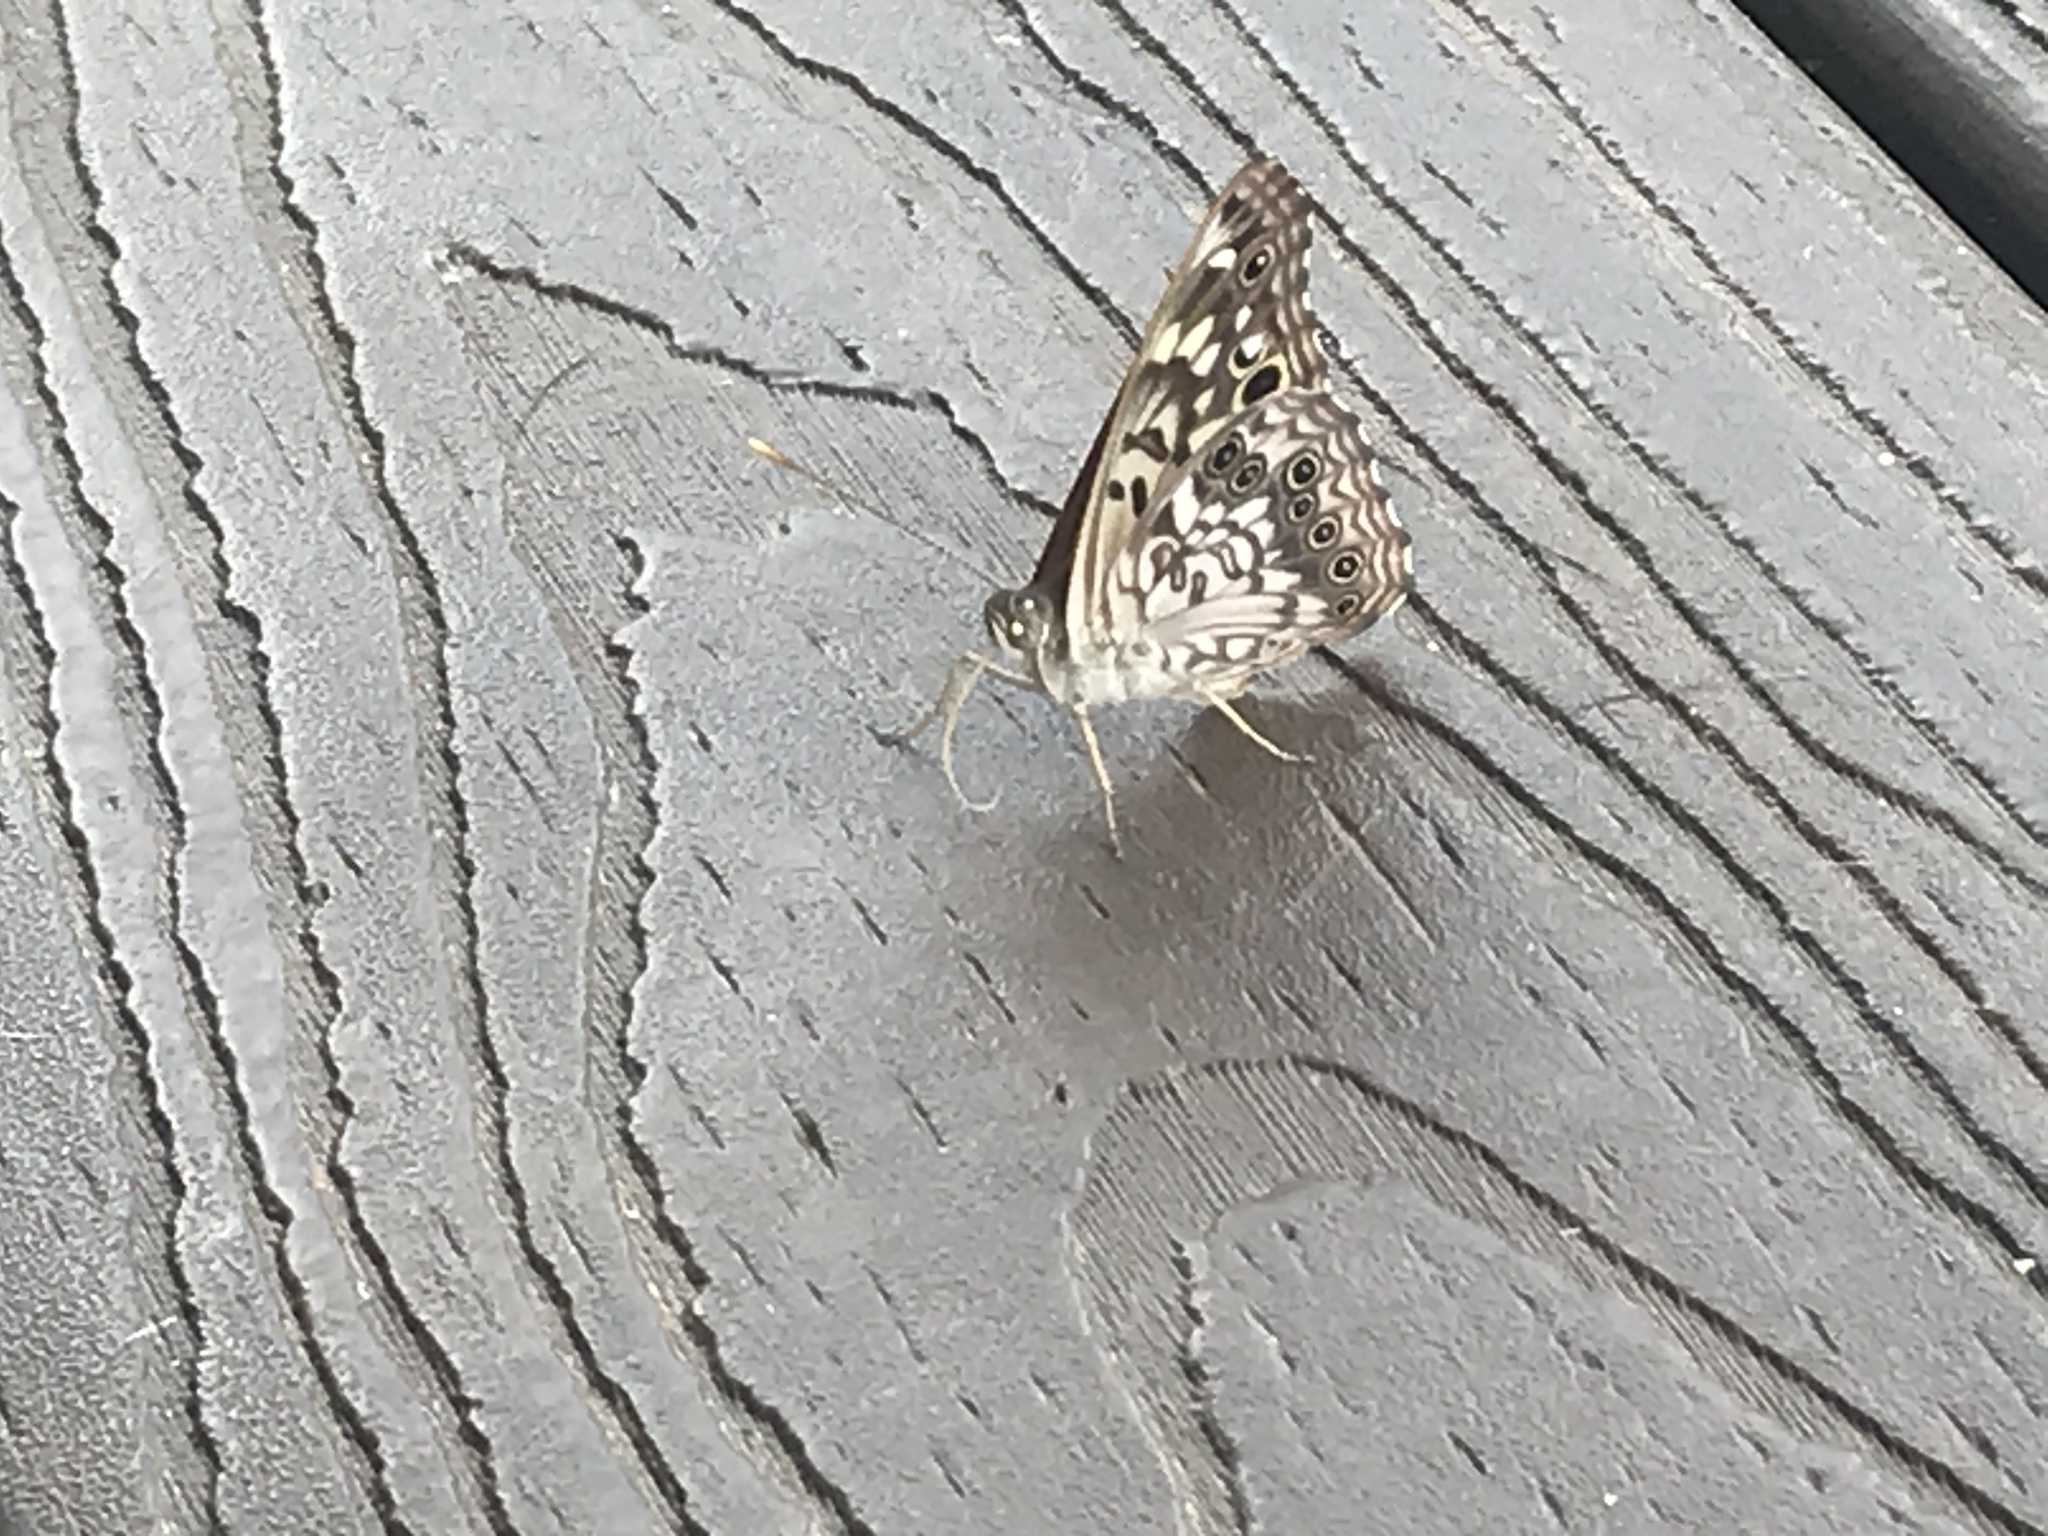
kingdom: Animalia
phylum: Arthropoda
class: Insecta
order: Lepidoptera
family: Nymphalidae
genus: Asterocampa
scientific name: Asterocampa celtis
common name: Hackberry emperor
